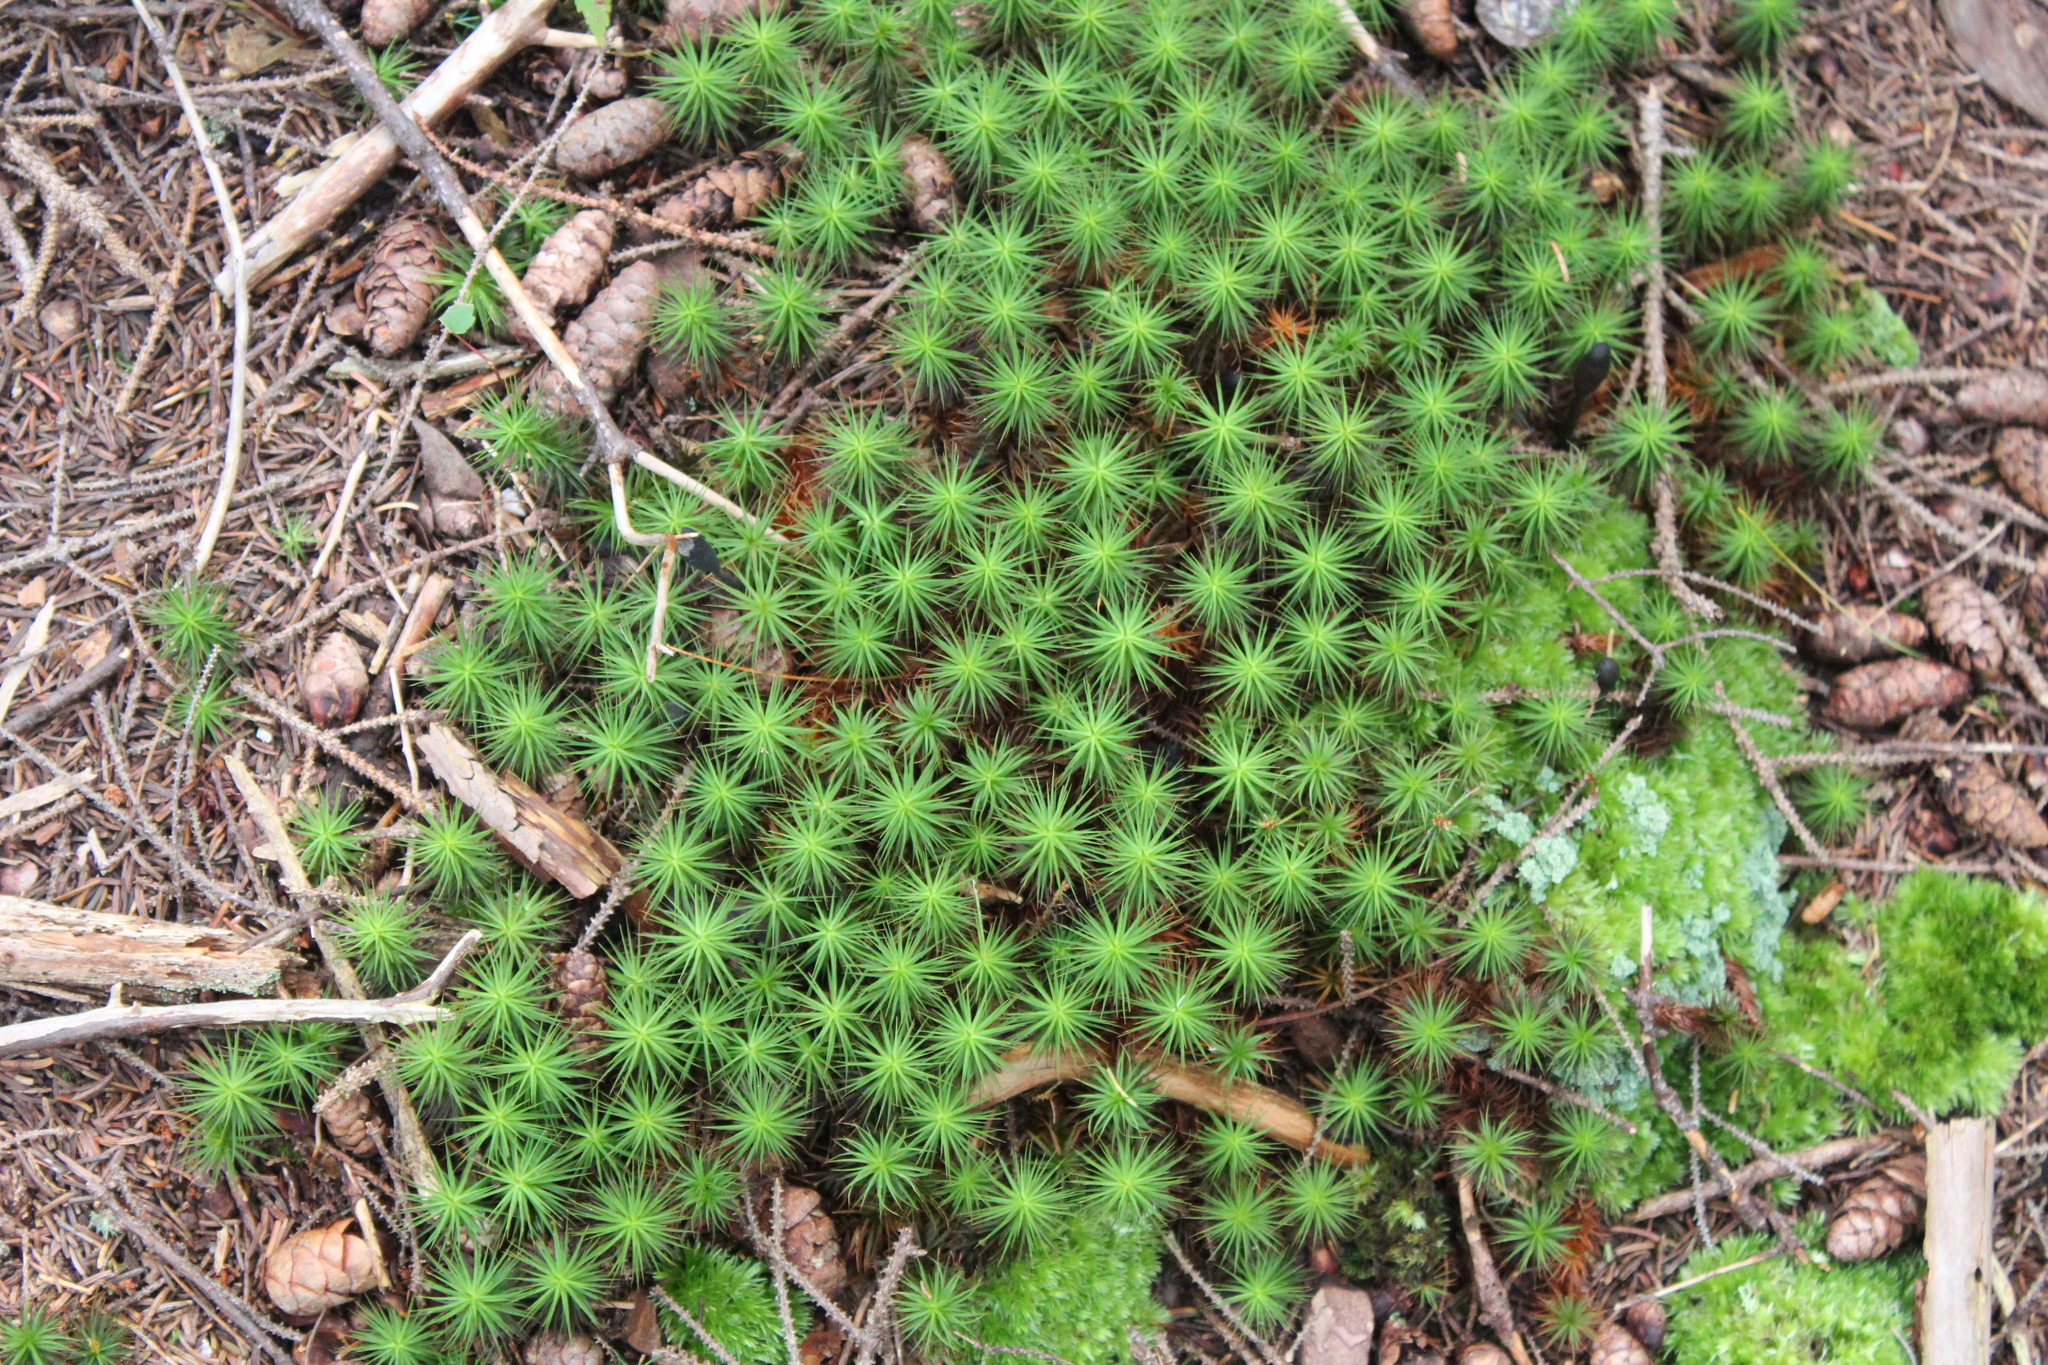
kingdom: Plantae
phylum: Bryophyta
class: Polytrichopsida
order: Polytrichales
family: Polytrichaceae
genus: Polytrichum
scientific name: Polytrichum commune
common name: Common haircap
